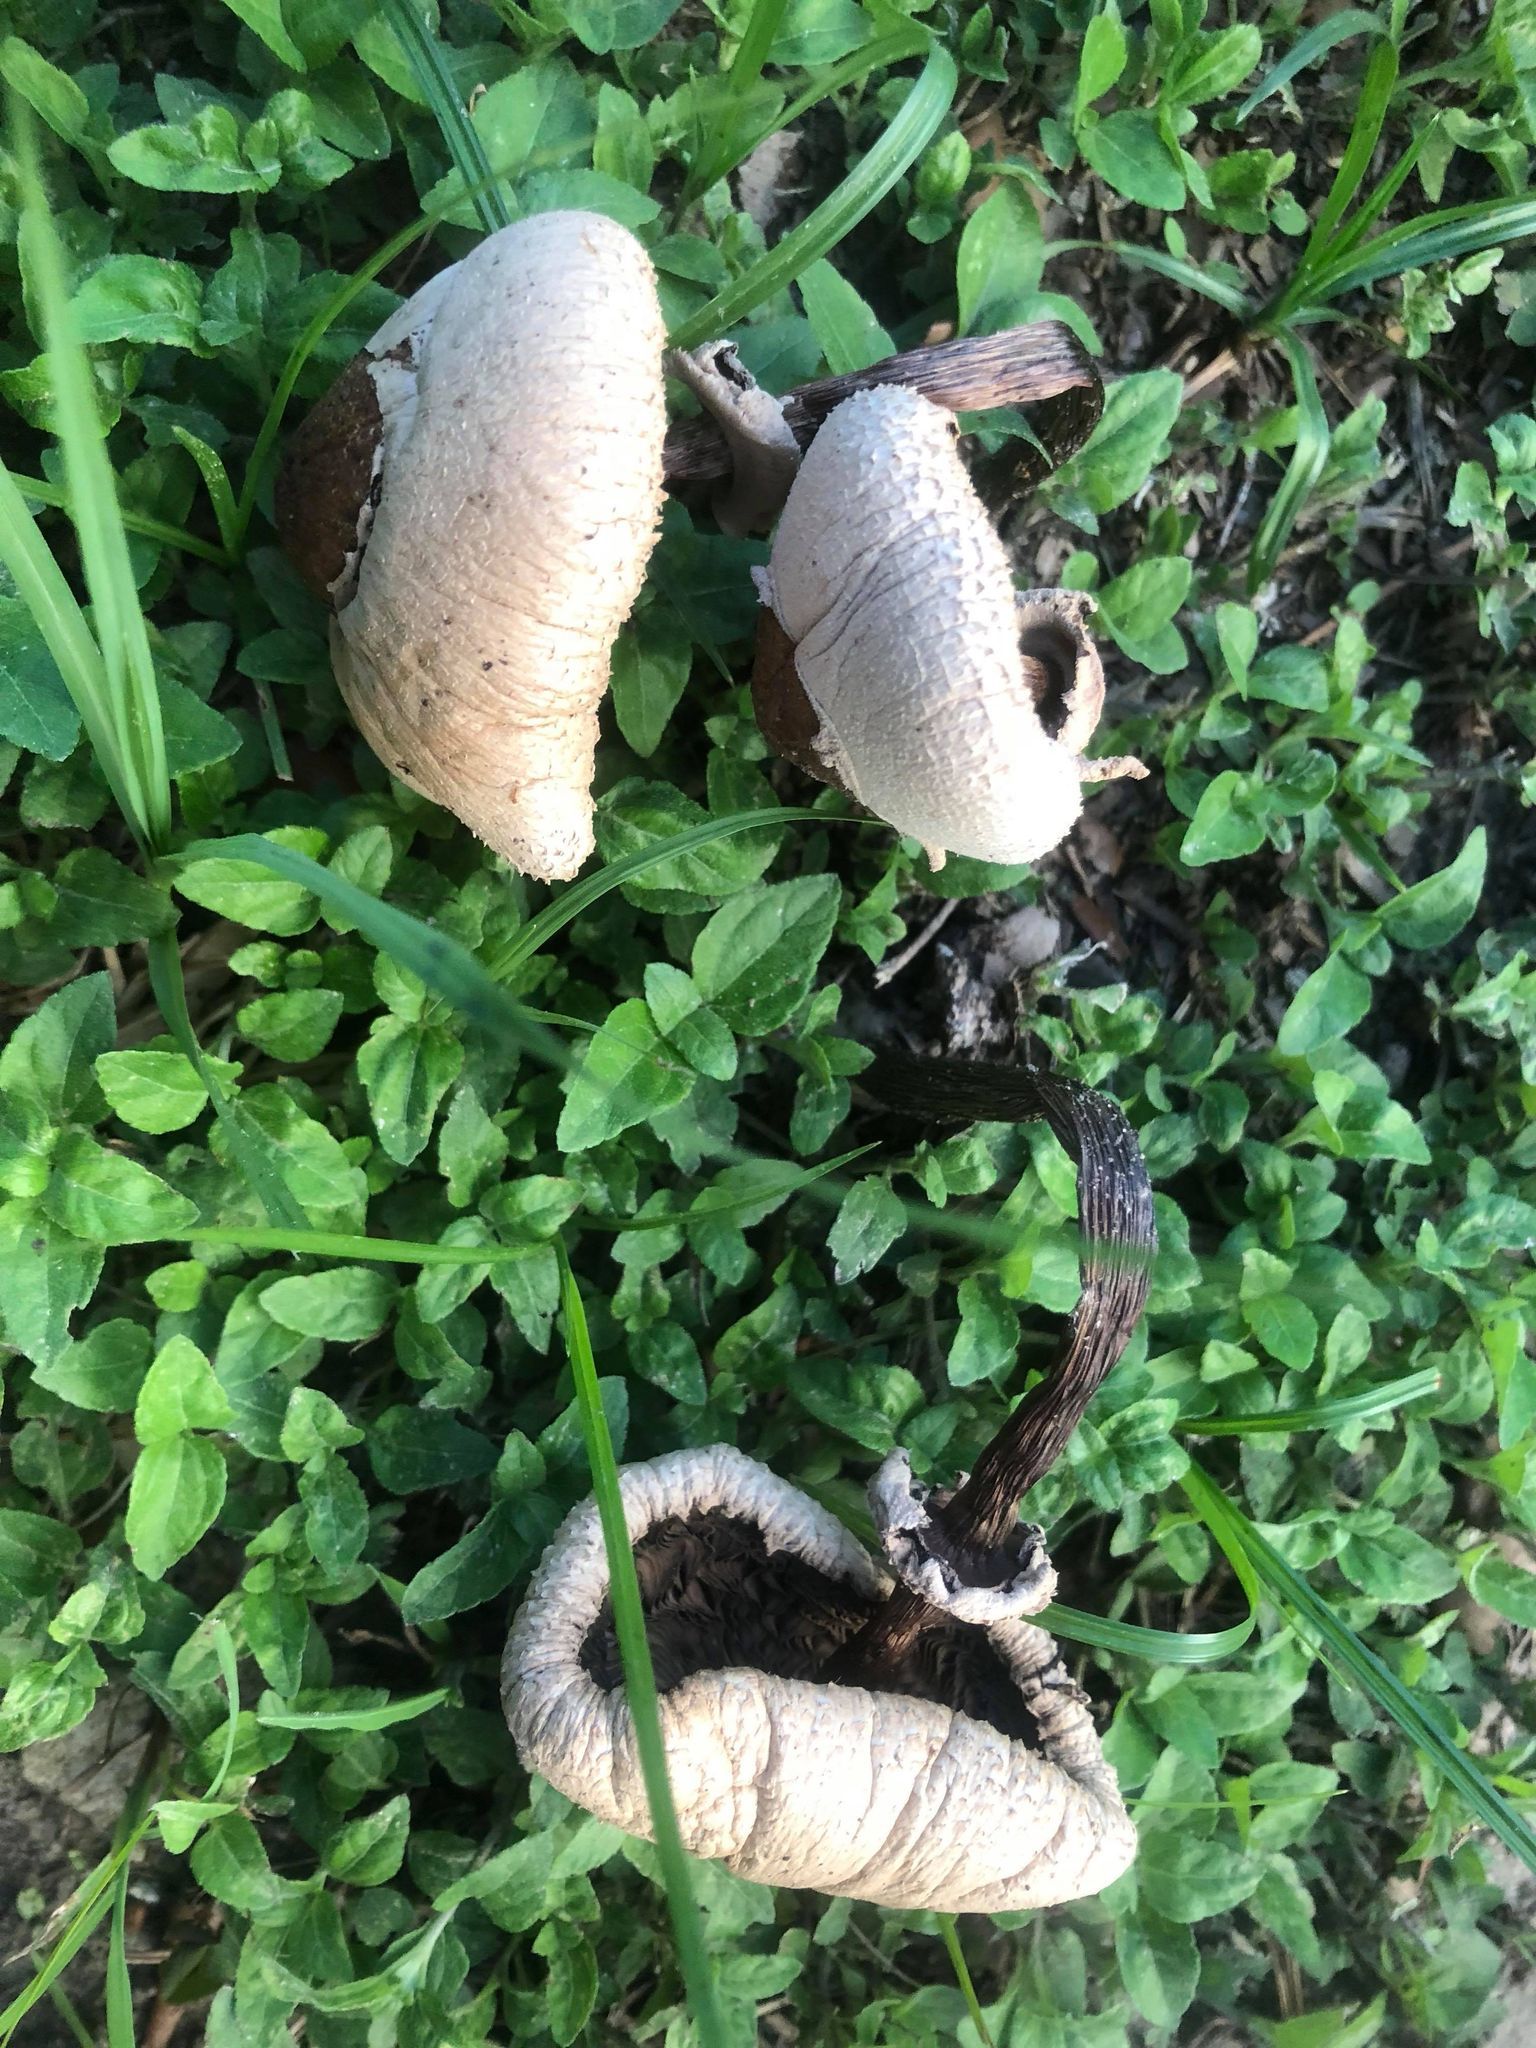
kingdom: Fungi
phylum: Basidiomycota
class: Agaricomycetes
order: Agaricales
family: Agaricaceae
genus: Chlorophyllum
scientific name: Chlorophyllum molybdites
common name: False parasol
